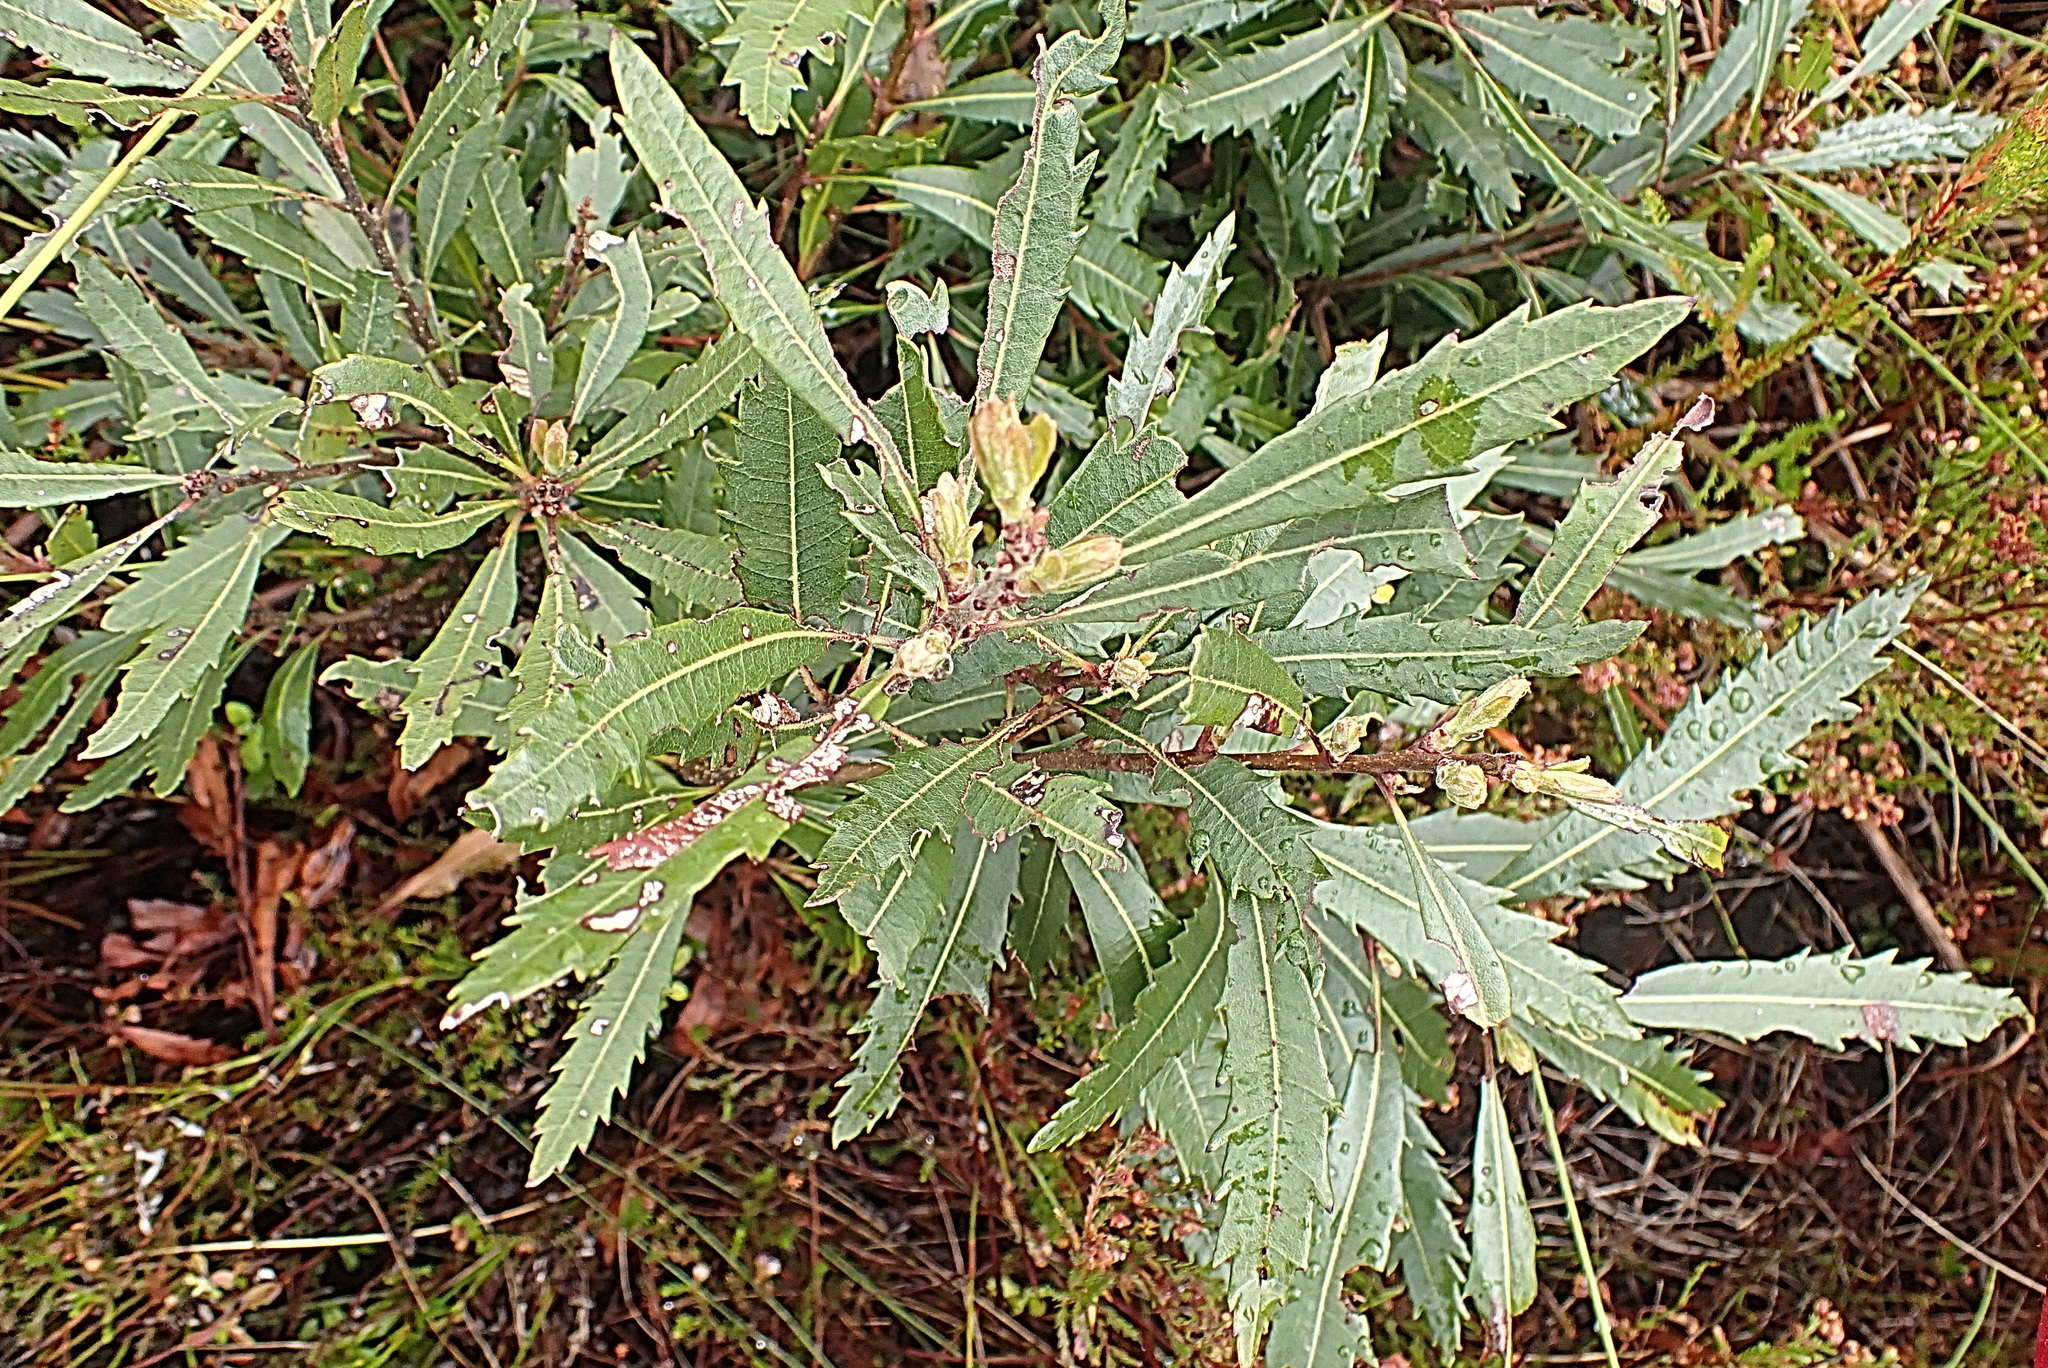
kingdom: Plantae
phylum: Tracheophyta
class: Magnoliopsida
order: Fagales
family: Myricaceae
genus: Morella
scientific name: Morella serrata
